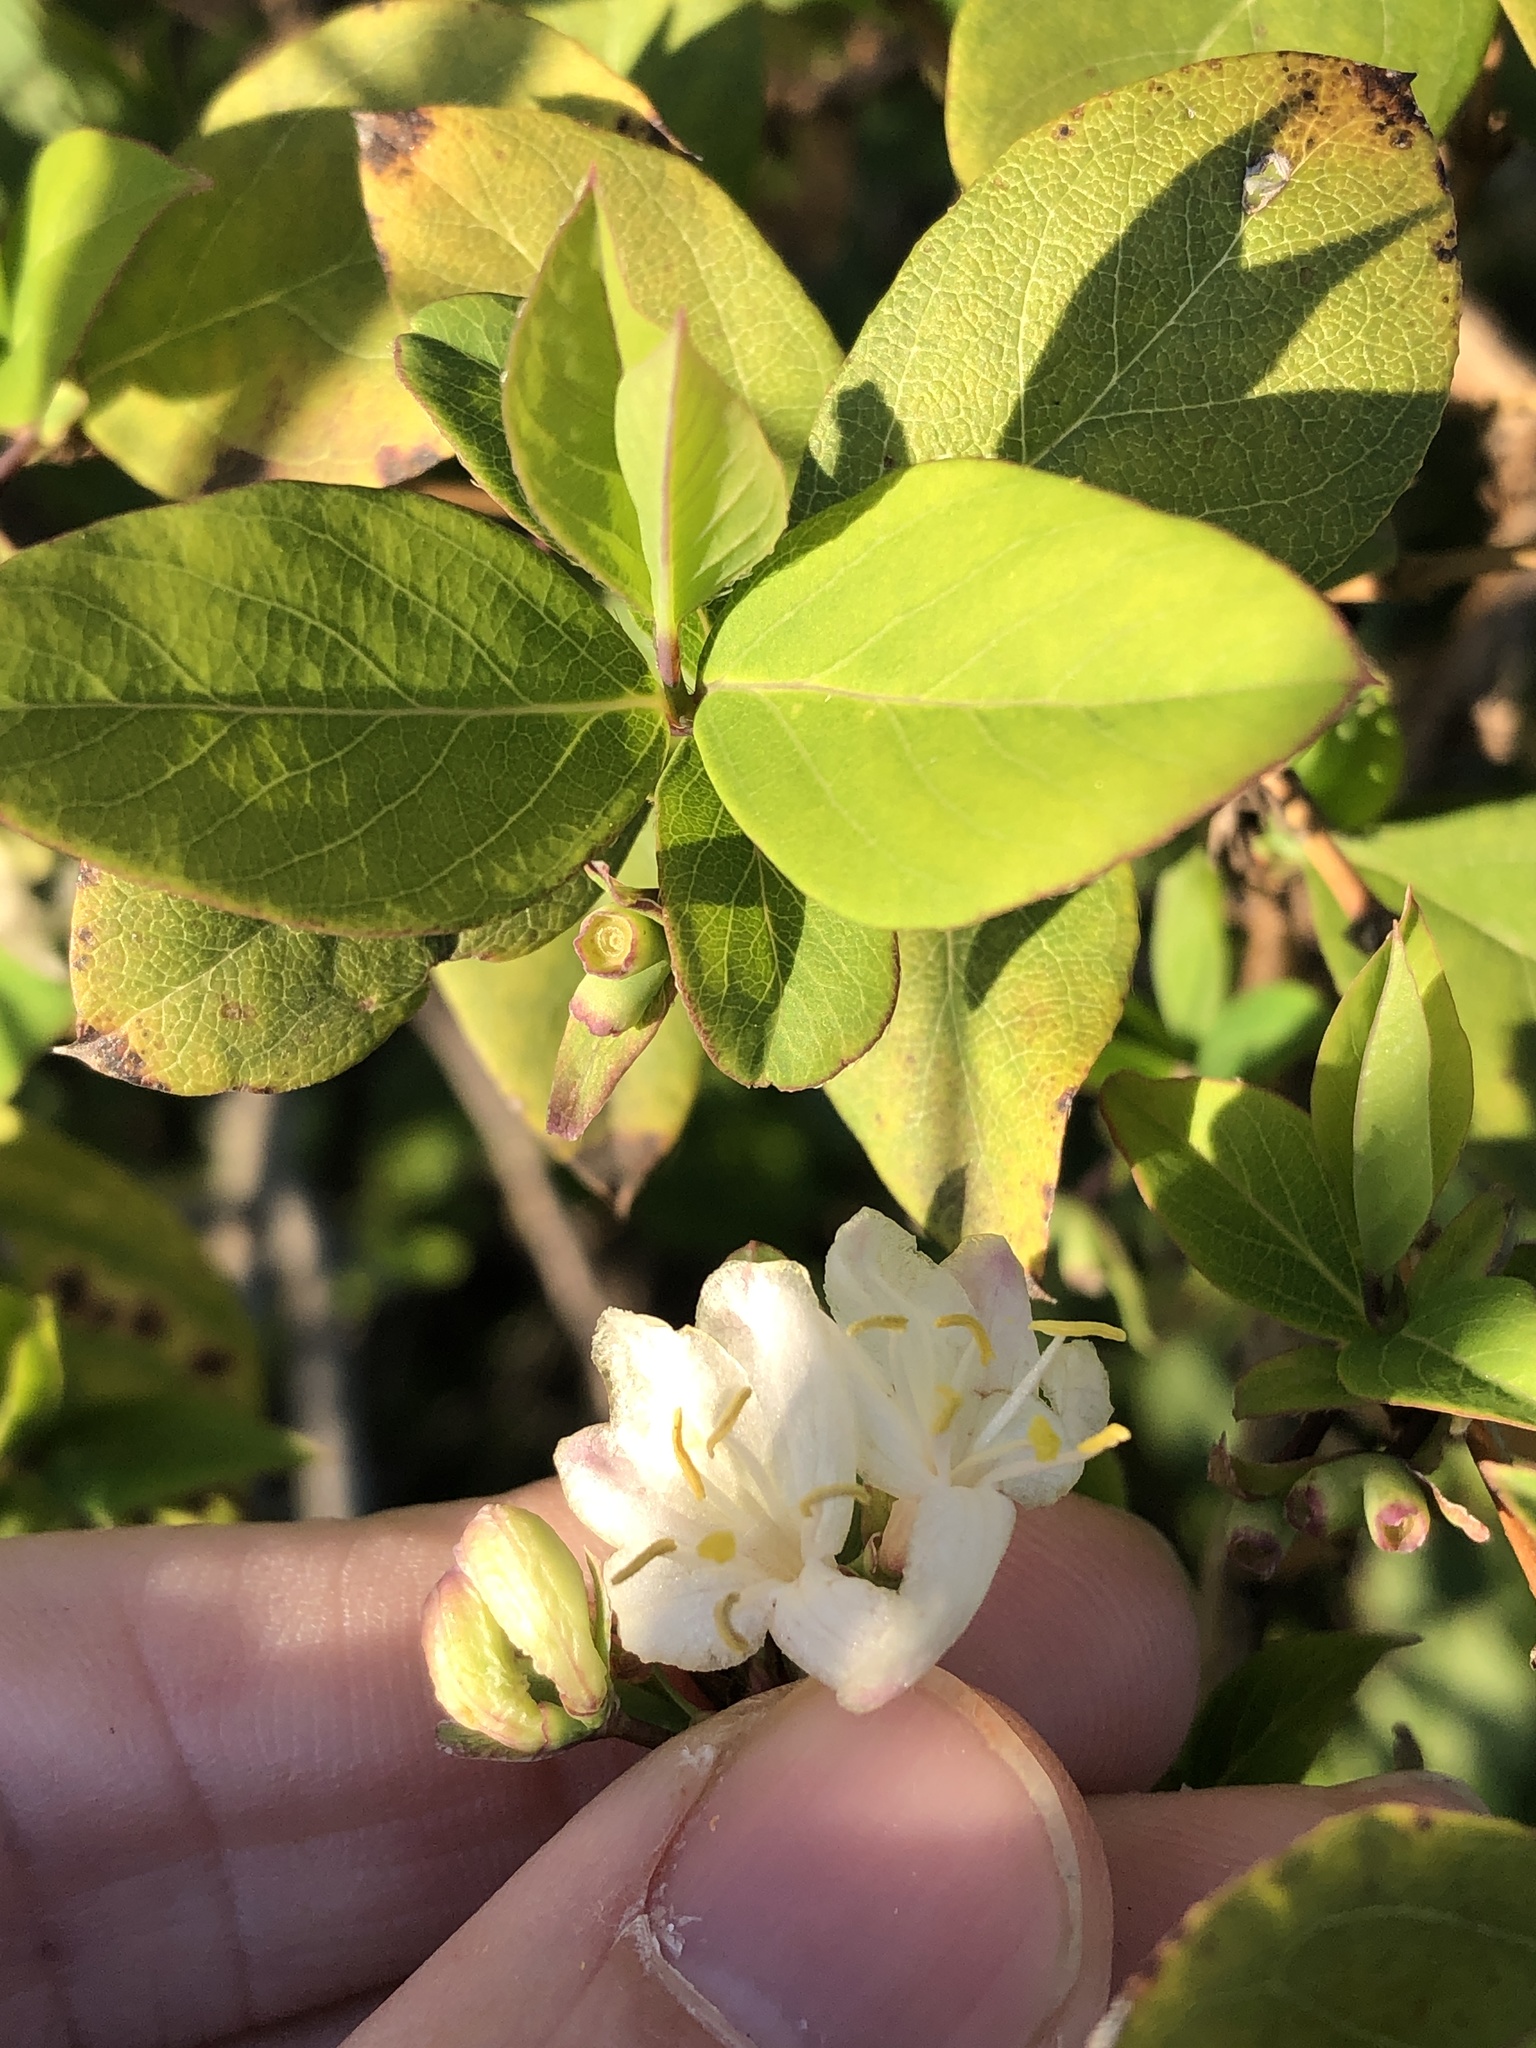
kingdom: Plantae
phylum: Tracheophyta
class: Magnoliopsida
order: Dipsacales
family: Caprifoliaceae
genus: Lonicera
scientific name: Lonicera fragrantissima
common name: Fragrant honeysuckle
